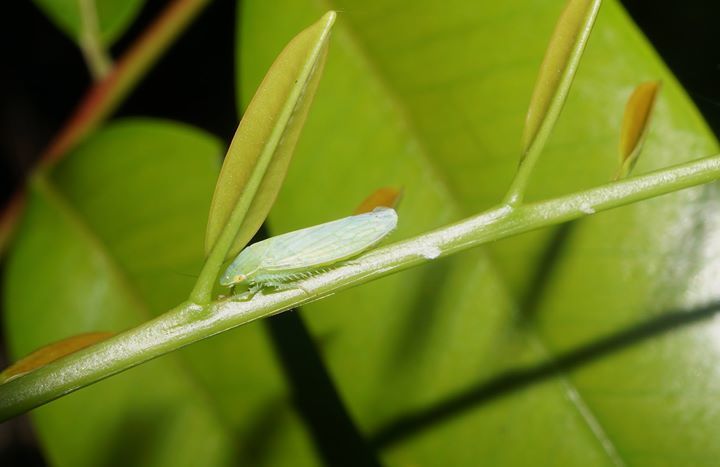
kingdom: Animalia
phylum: Arthropoda
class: Insecta
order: Hemiptera
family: Cicadellidae
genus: Gyponana
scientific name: Gyponana tenella
